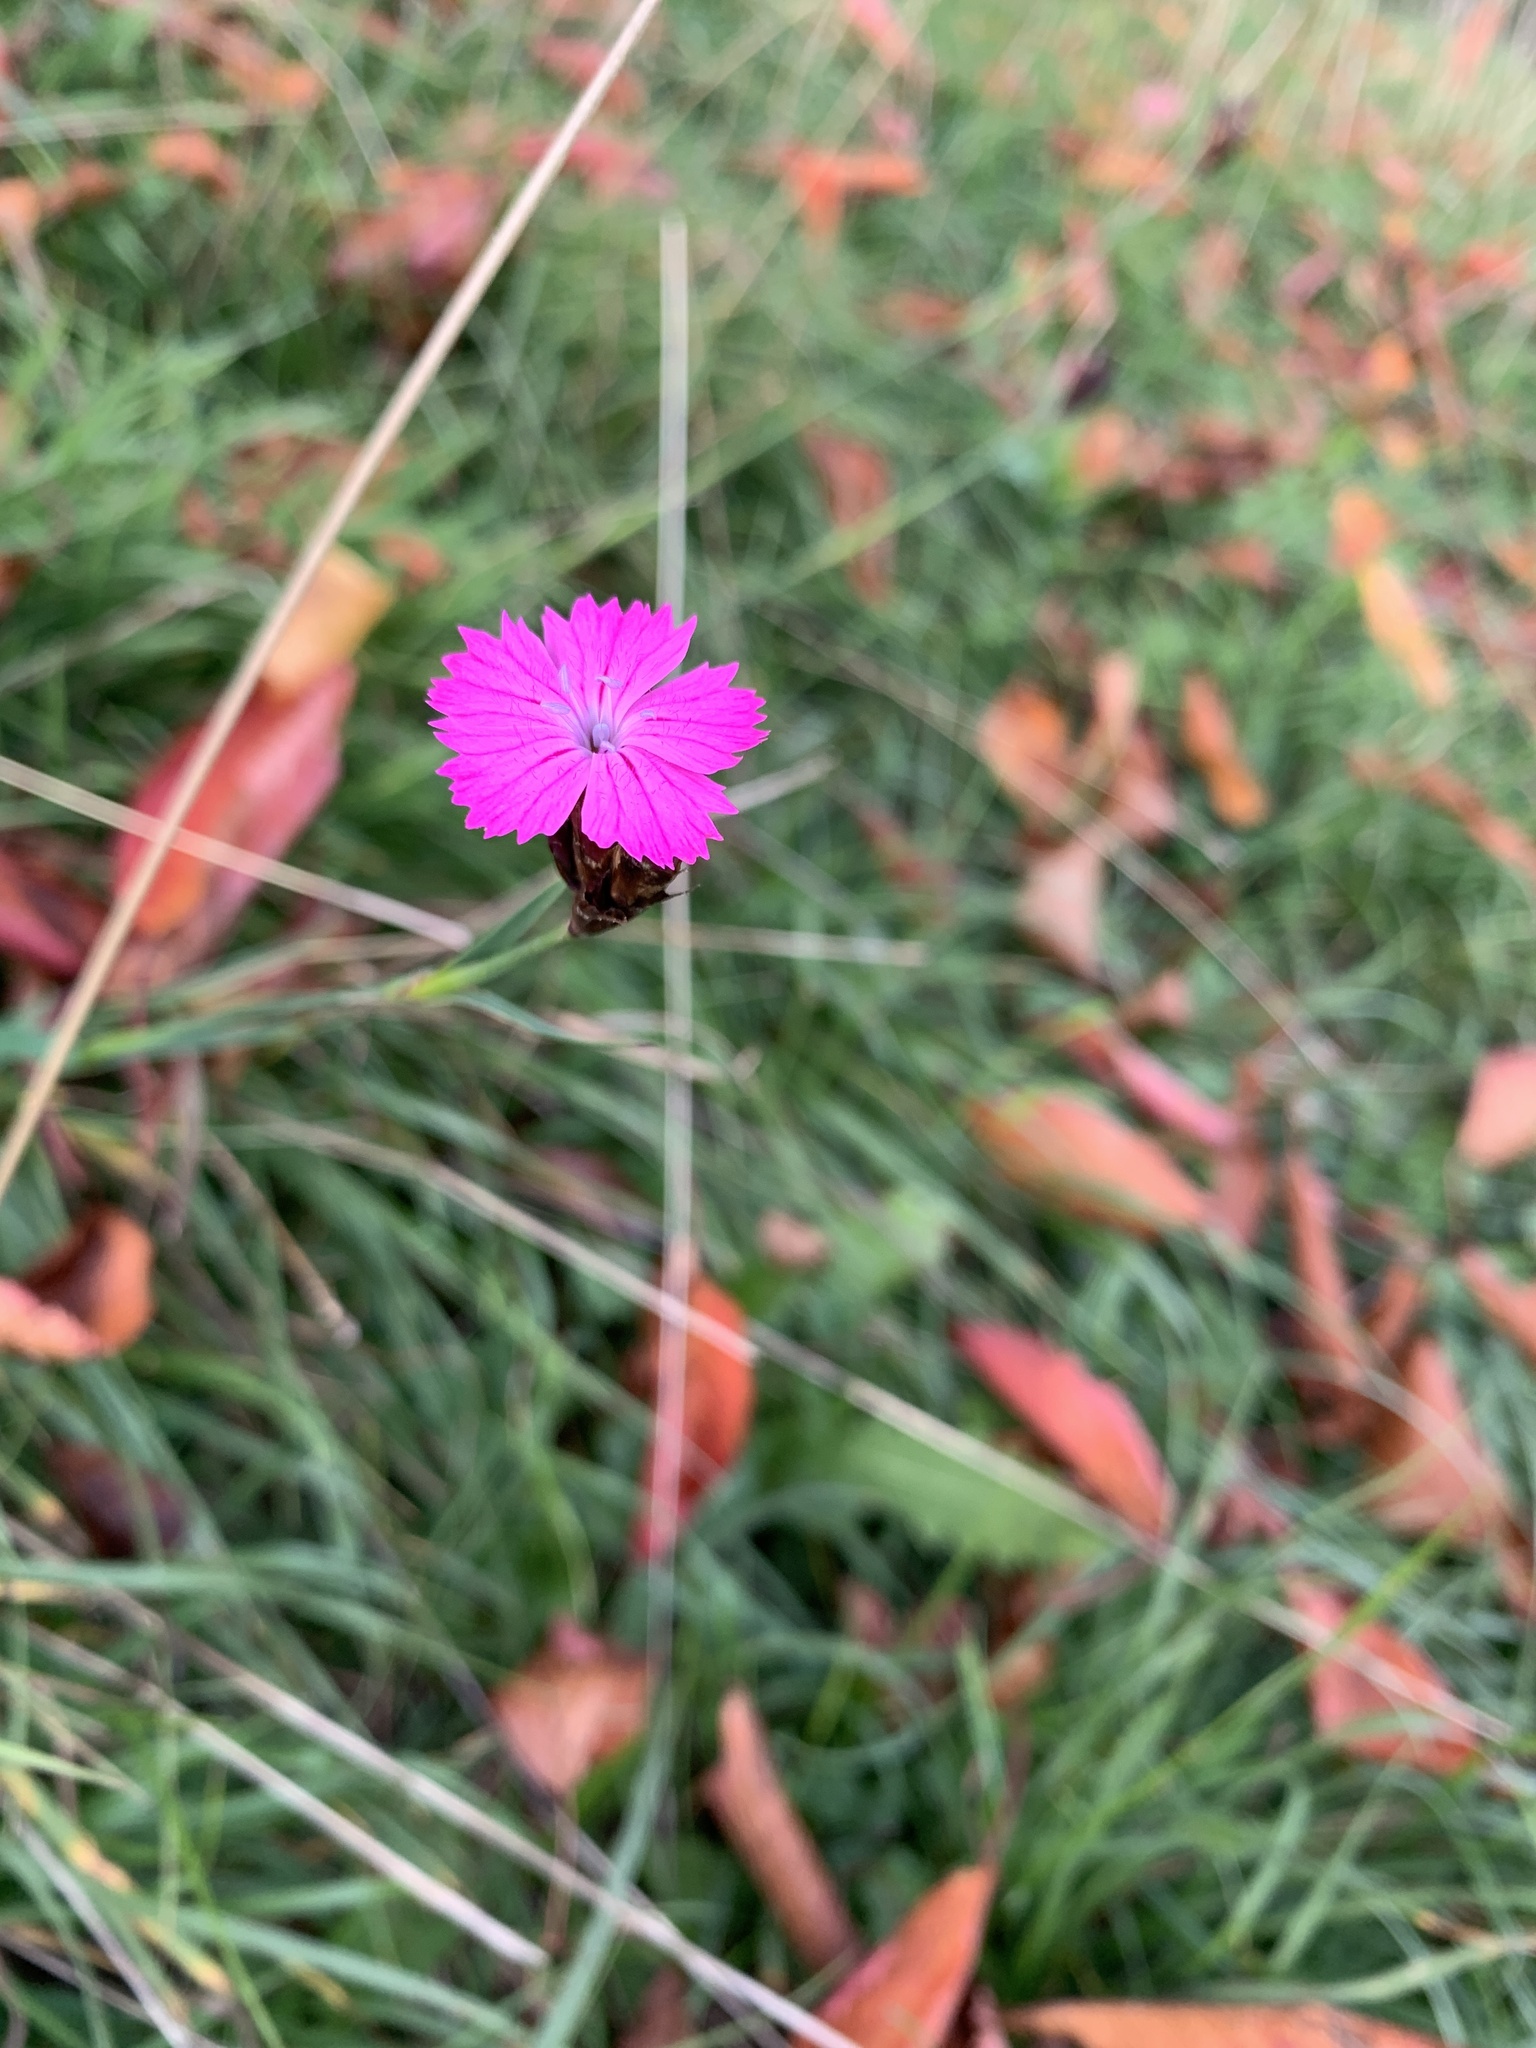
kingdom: Plantae
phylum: Tracheophyta
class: Magnoliopsida
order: Caryophyllales
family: Caryophyllaceae
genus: Dianthus
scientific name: Dianthus carthusianorum
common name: Carthusian pink
